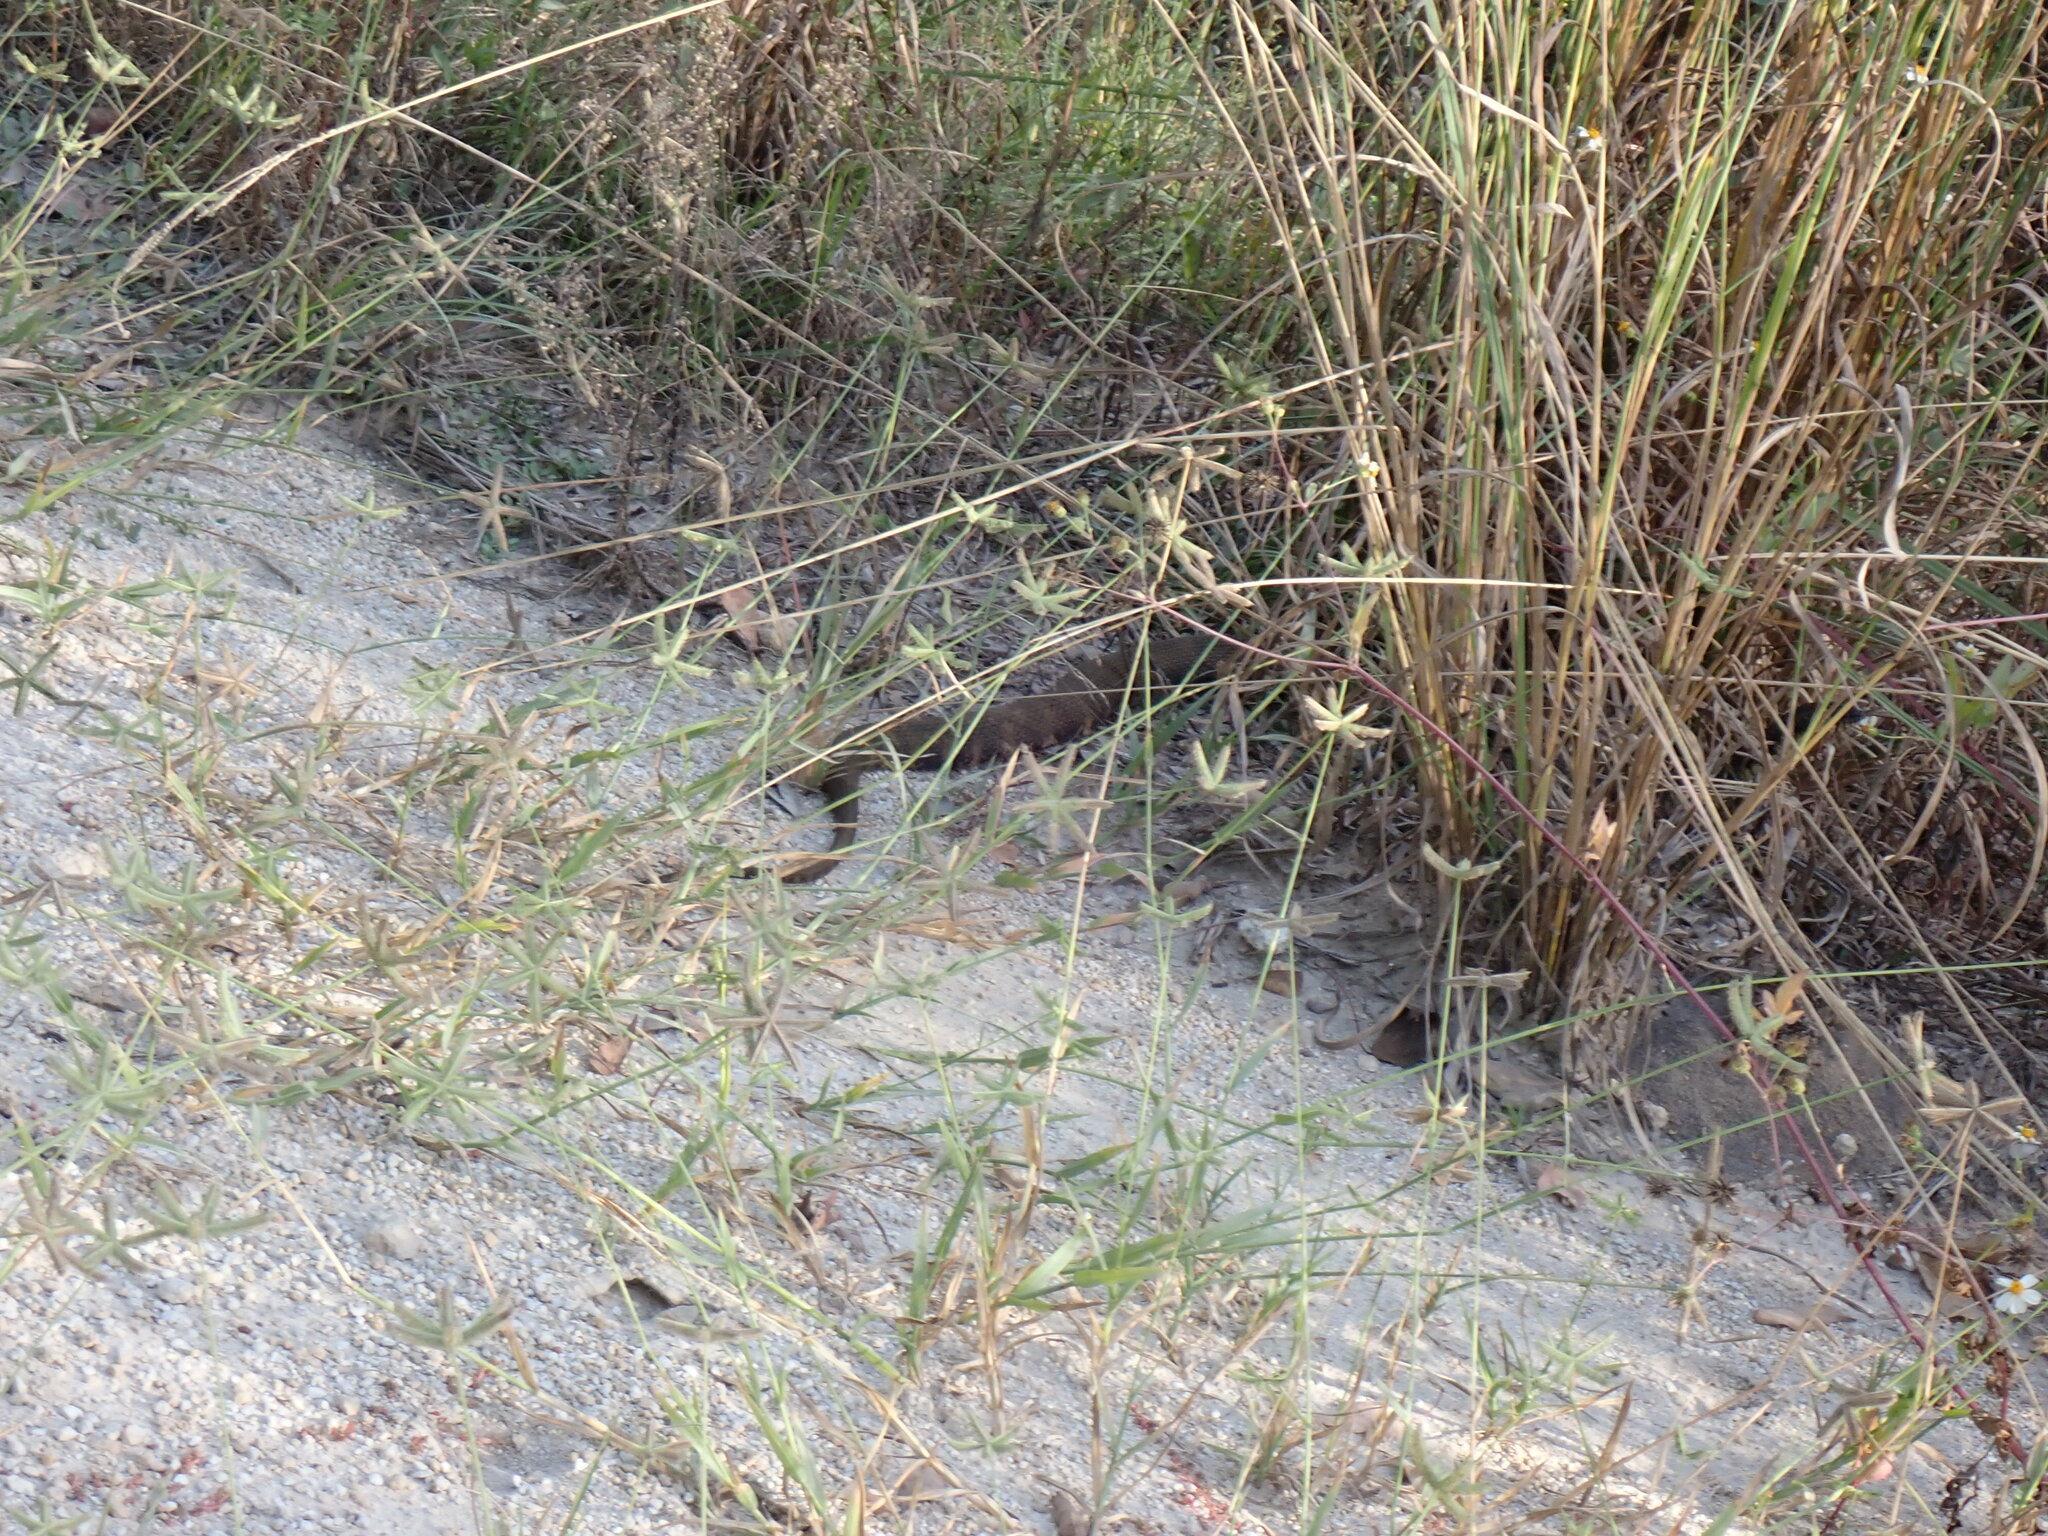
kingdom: Plantae
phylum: Tracheophyta
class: Liliopsida
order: Poales
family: Poaceae
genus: Dactyloctenium
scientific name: Dactyloctenium aegyptium
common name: Egyptian grass
